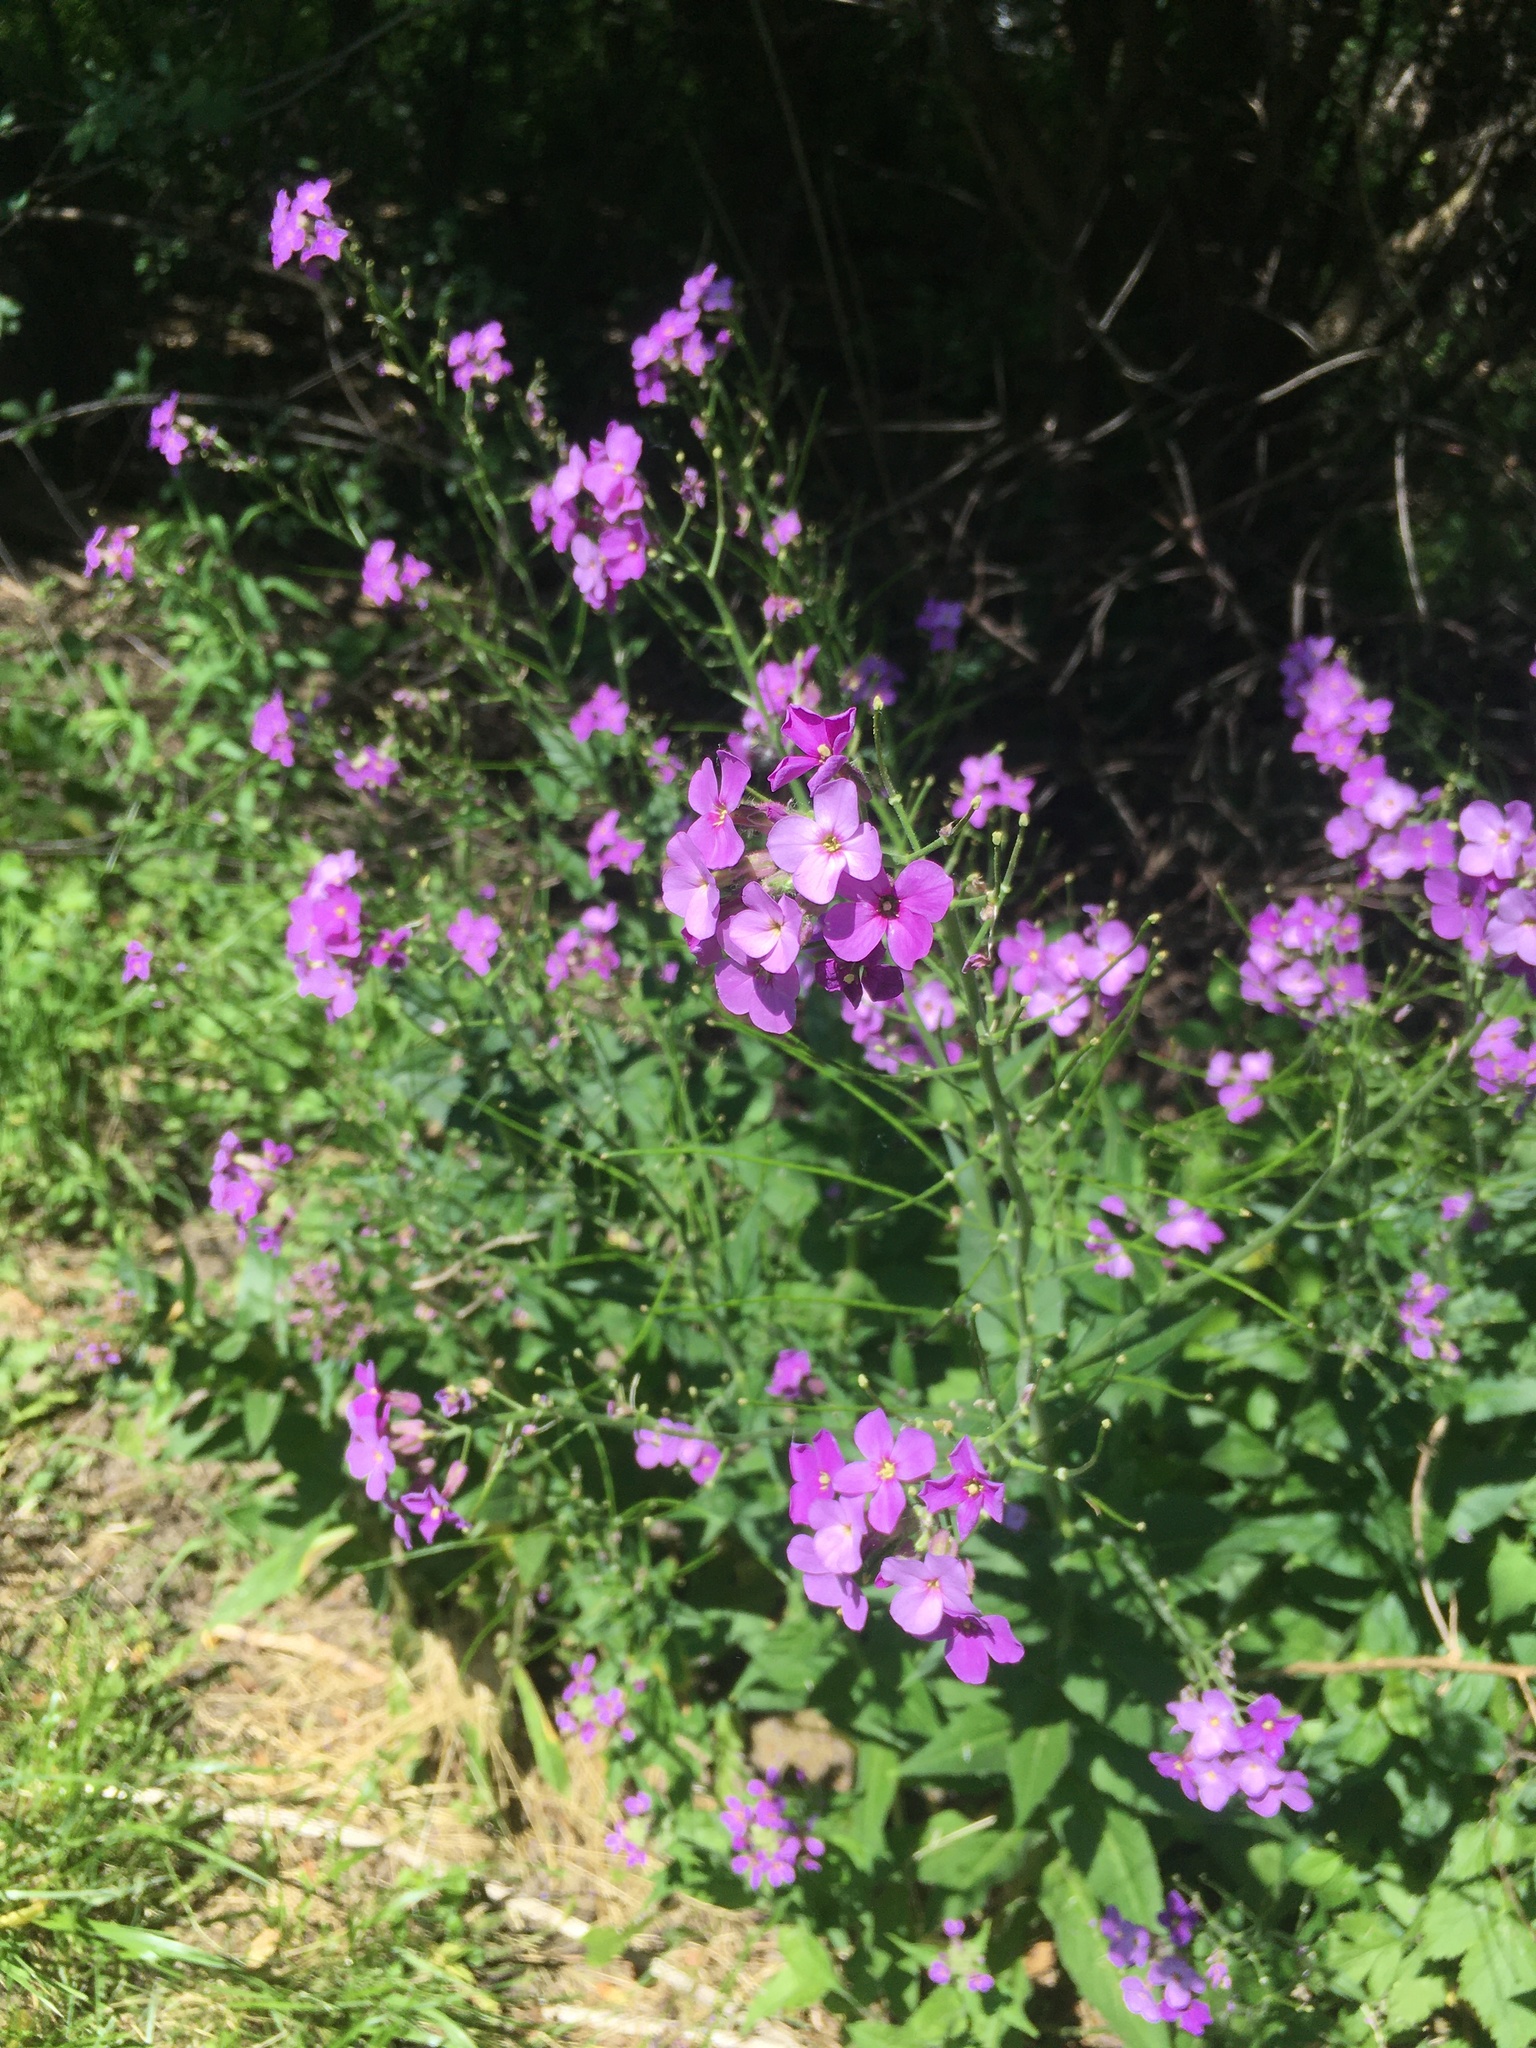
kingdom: Plantae
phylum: Tracheophyta
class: Magnoliopsida
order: Brassicales
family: Brassicaceae
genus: Hesperis
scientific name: Hesperis matronalis
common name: Dame's-violet
